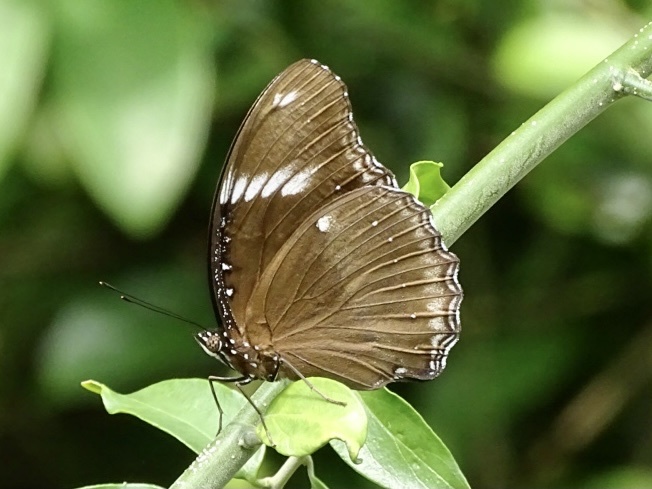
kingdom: Animalia
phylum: Arthropoda
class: Insecta
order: Lepidoptera
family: Nymphalidae
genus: Hypolimnas
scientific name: Hypolimnas bolina
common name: Great eggfly
